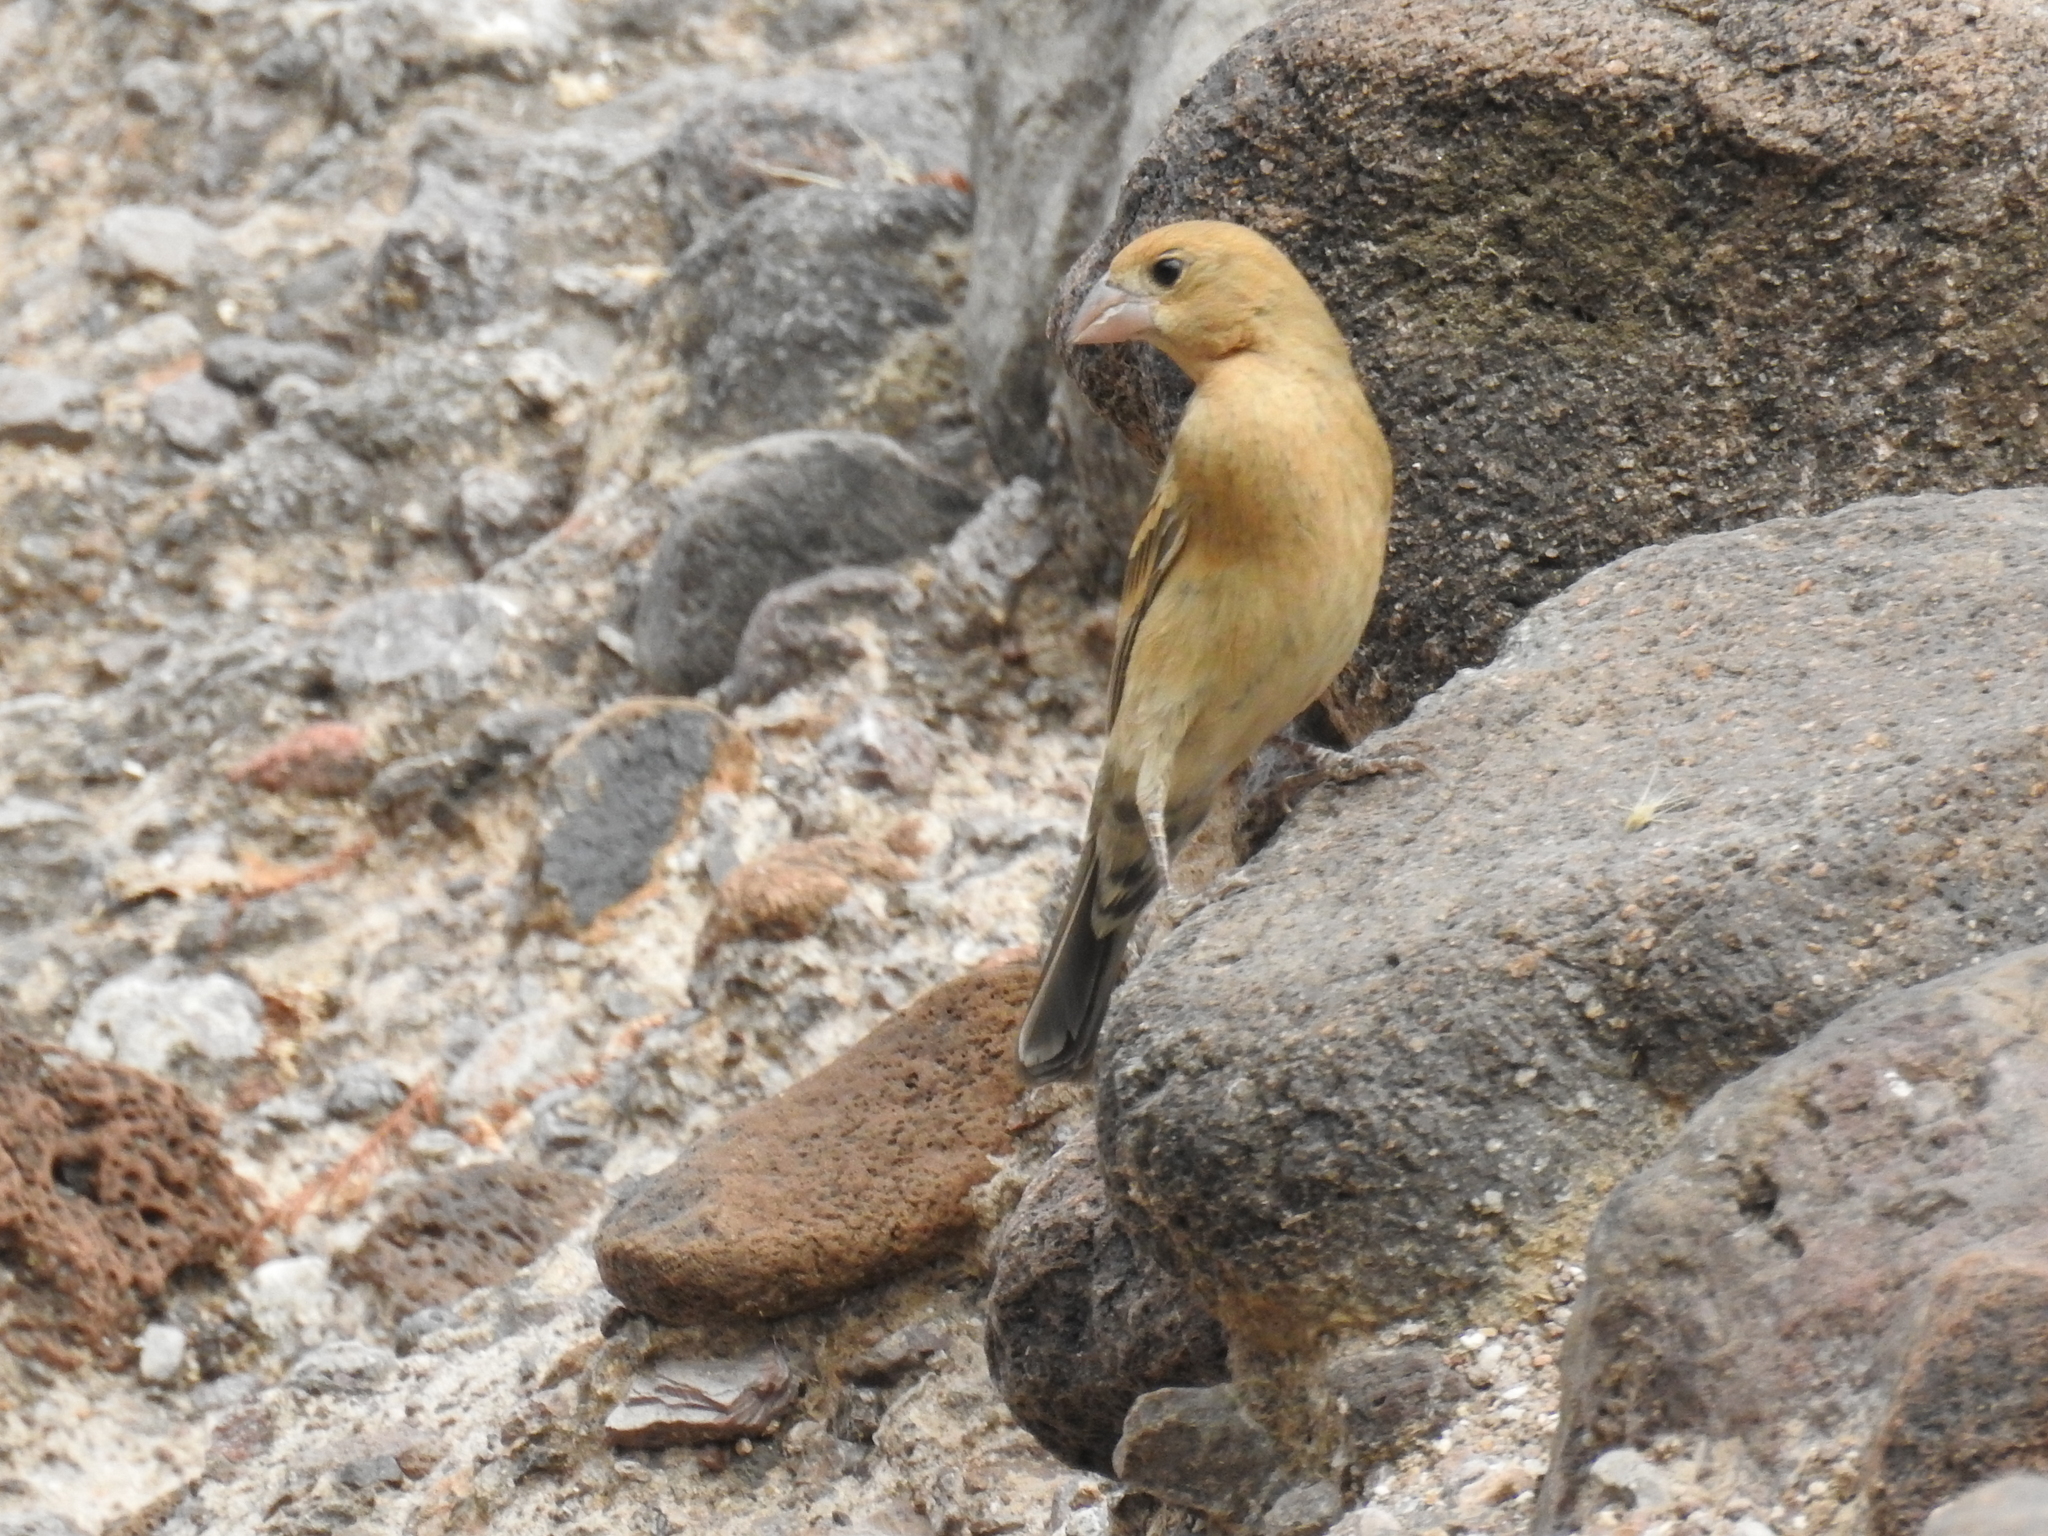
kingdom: Animalia
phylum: Chordata
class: Aves
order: Passeriformes
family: Cardinalidae
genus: Passerina
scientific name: Passerina caerulea
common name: Blue grosbeak
